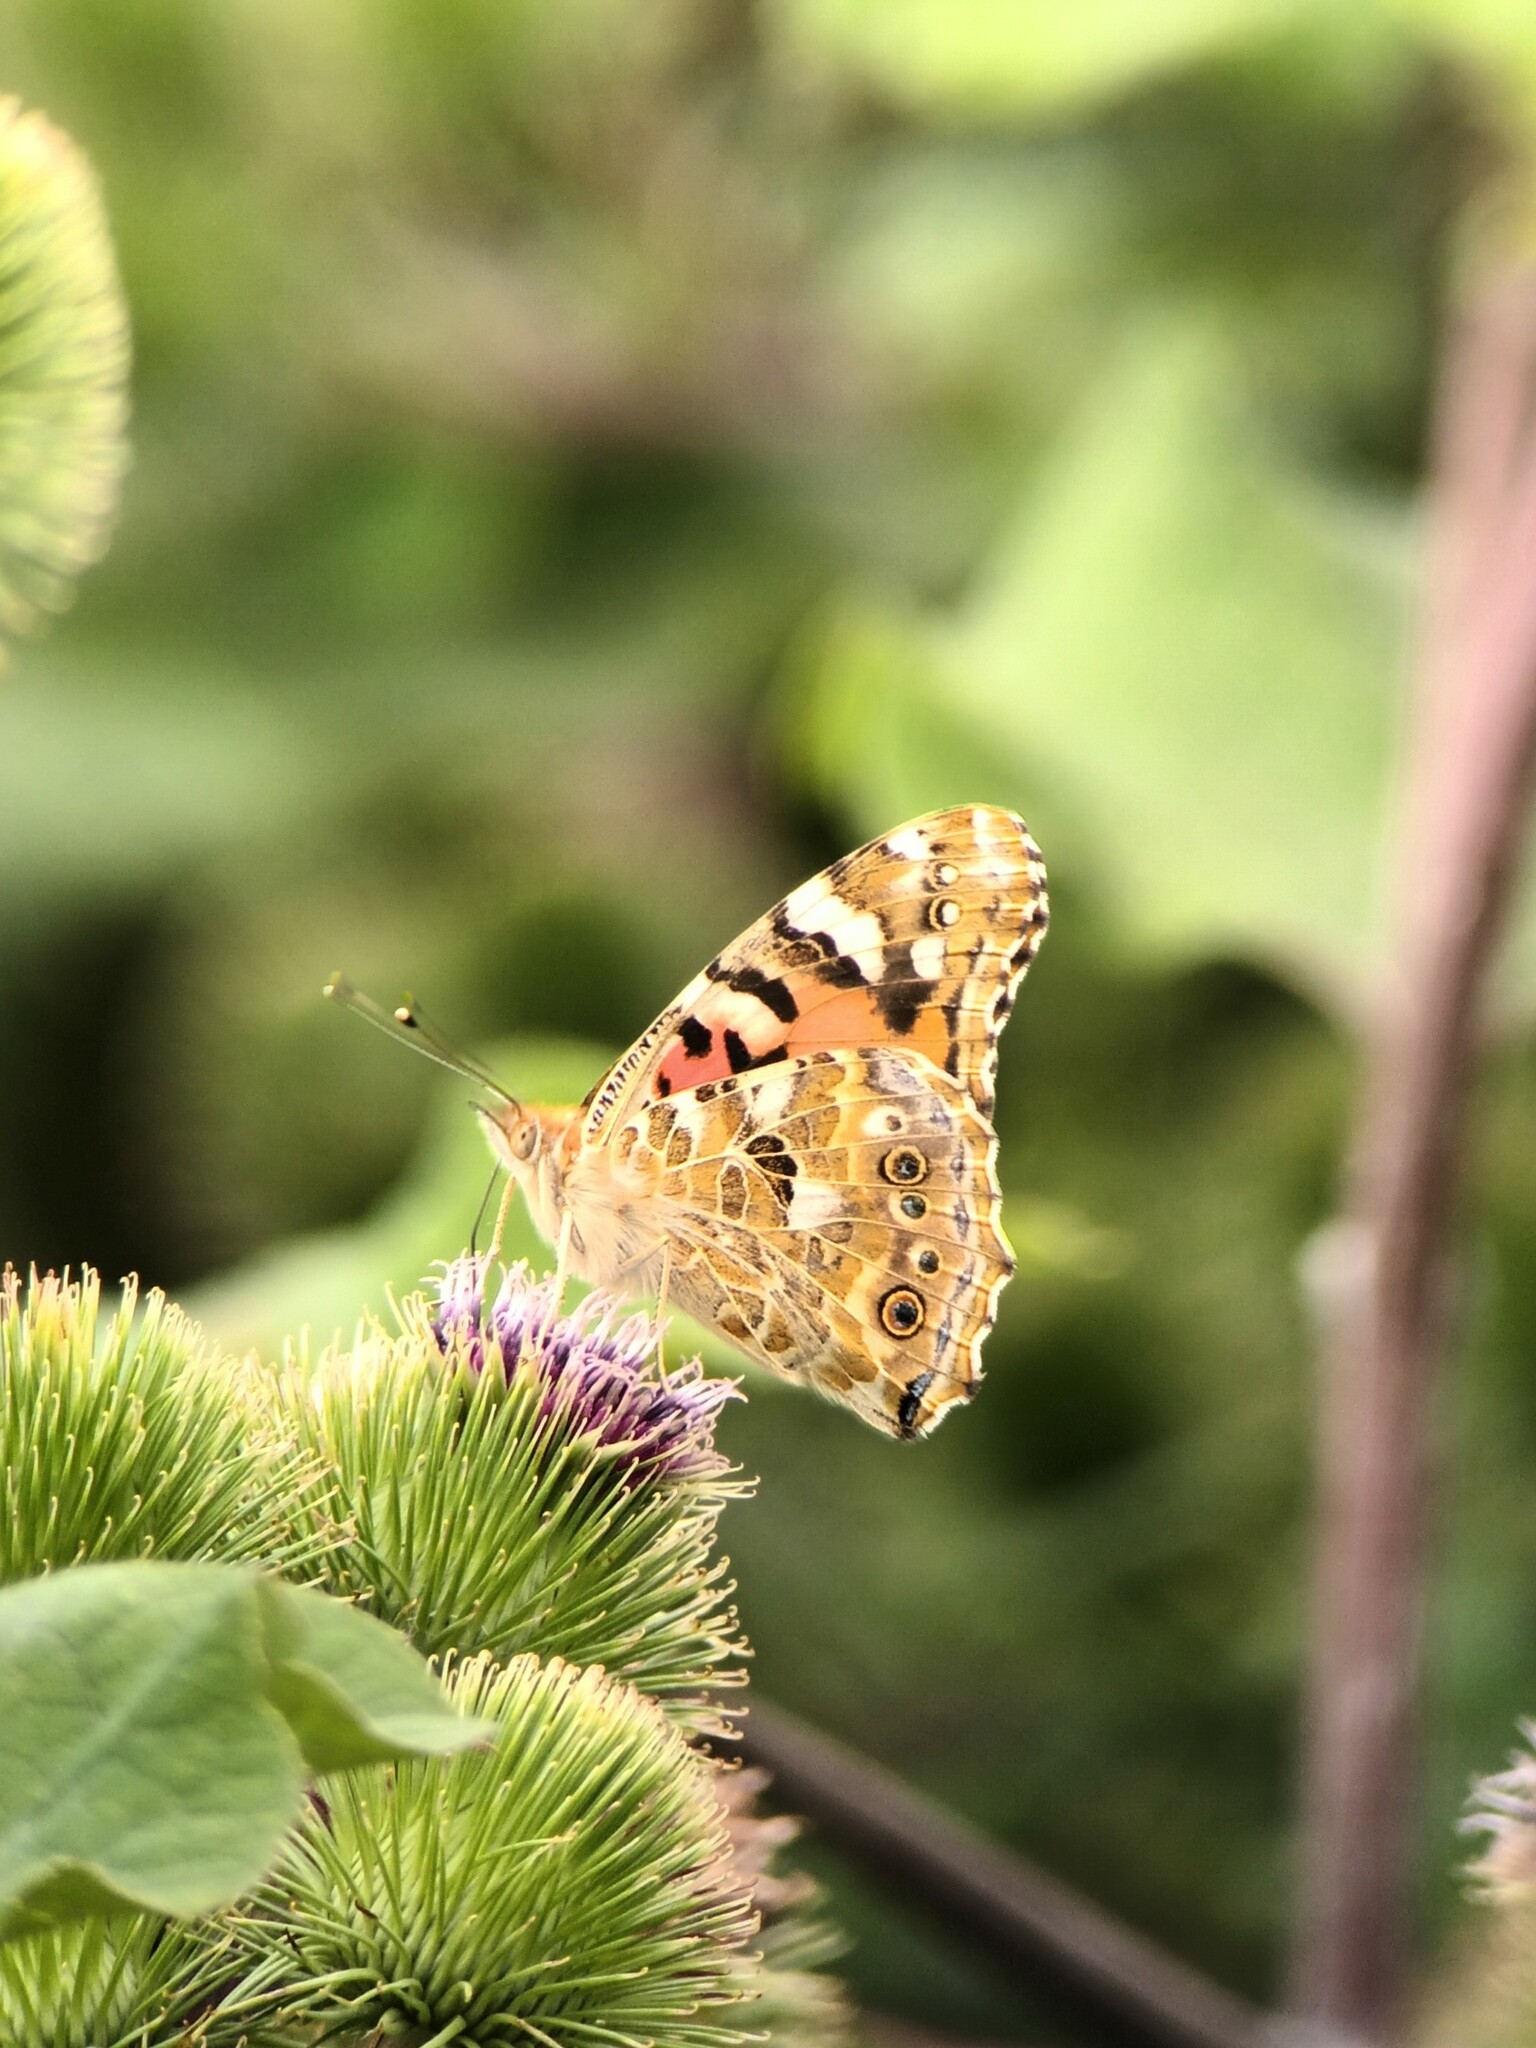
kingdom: Animalia
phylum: Arthropoda
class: Insecta
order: Lepidoptera
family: Nymphalidae
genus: Vanessa
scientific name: Vanessa cardui
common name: Painted lady
